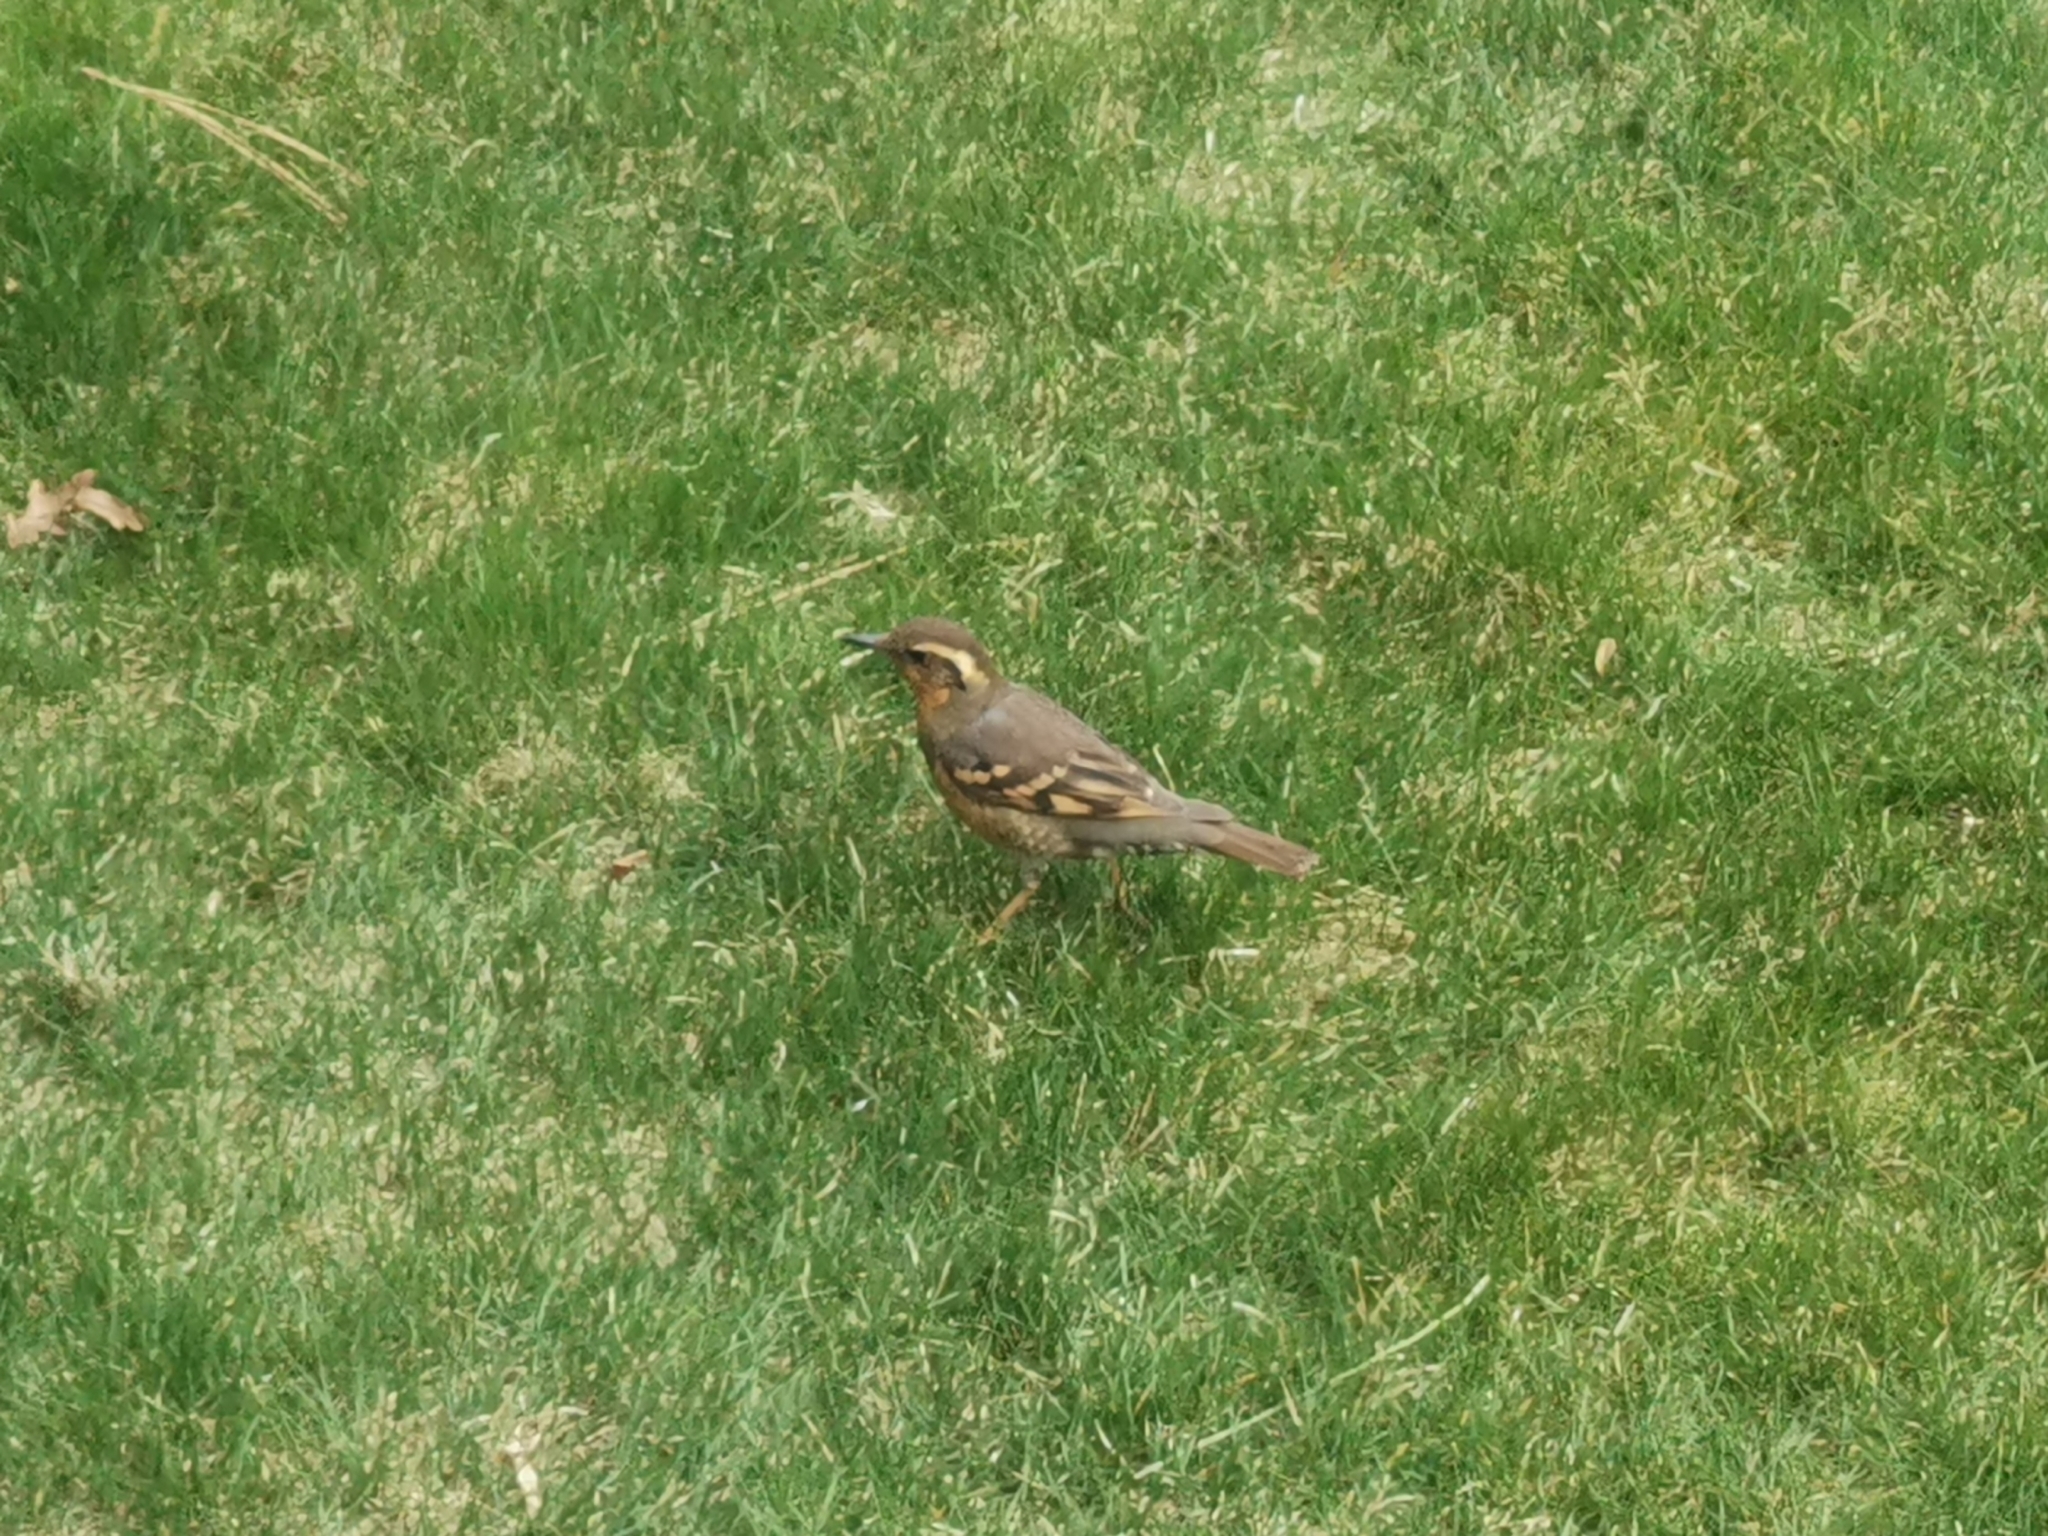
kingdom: Animalia
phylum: Chordata
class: Aves
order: Passeriformes
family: Turdidae
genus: Ixoreus
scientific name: Ixoreus naevius
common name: Varied thrush
